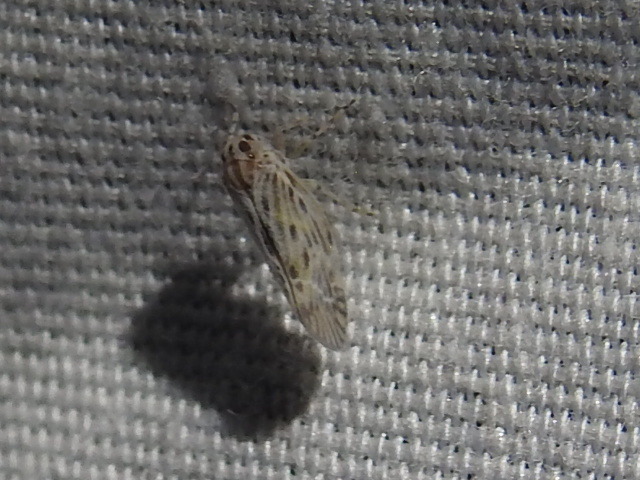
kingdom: Animalia
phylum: Arthropoda
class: Insecta
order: Hemiptera
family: Derbidae
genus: Cedusa
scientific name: Cedusa maculata
